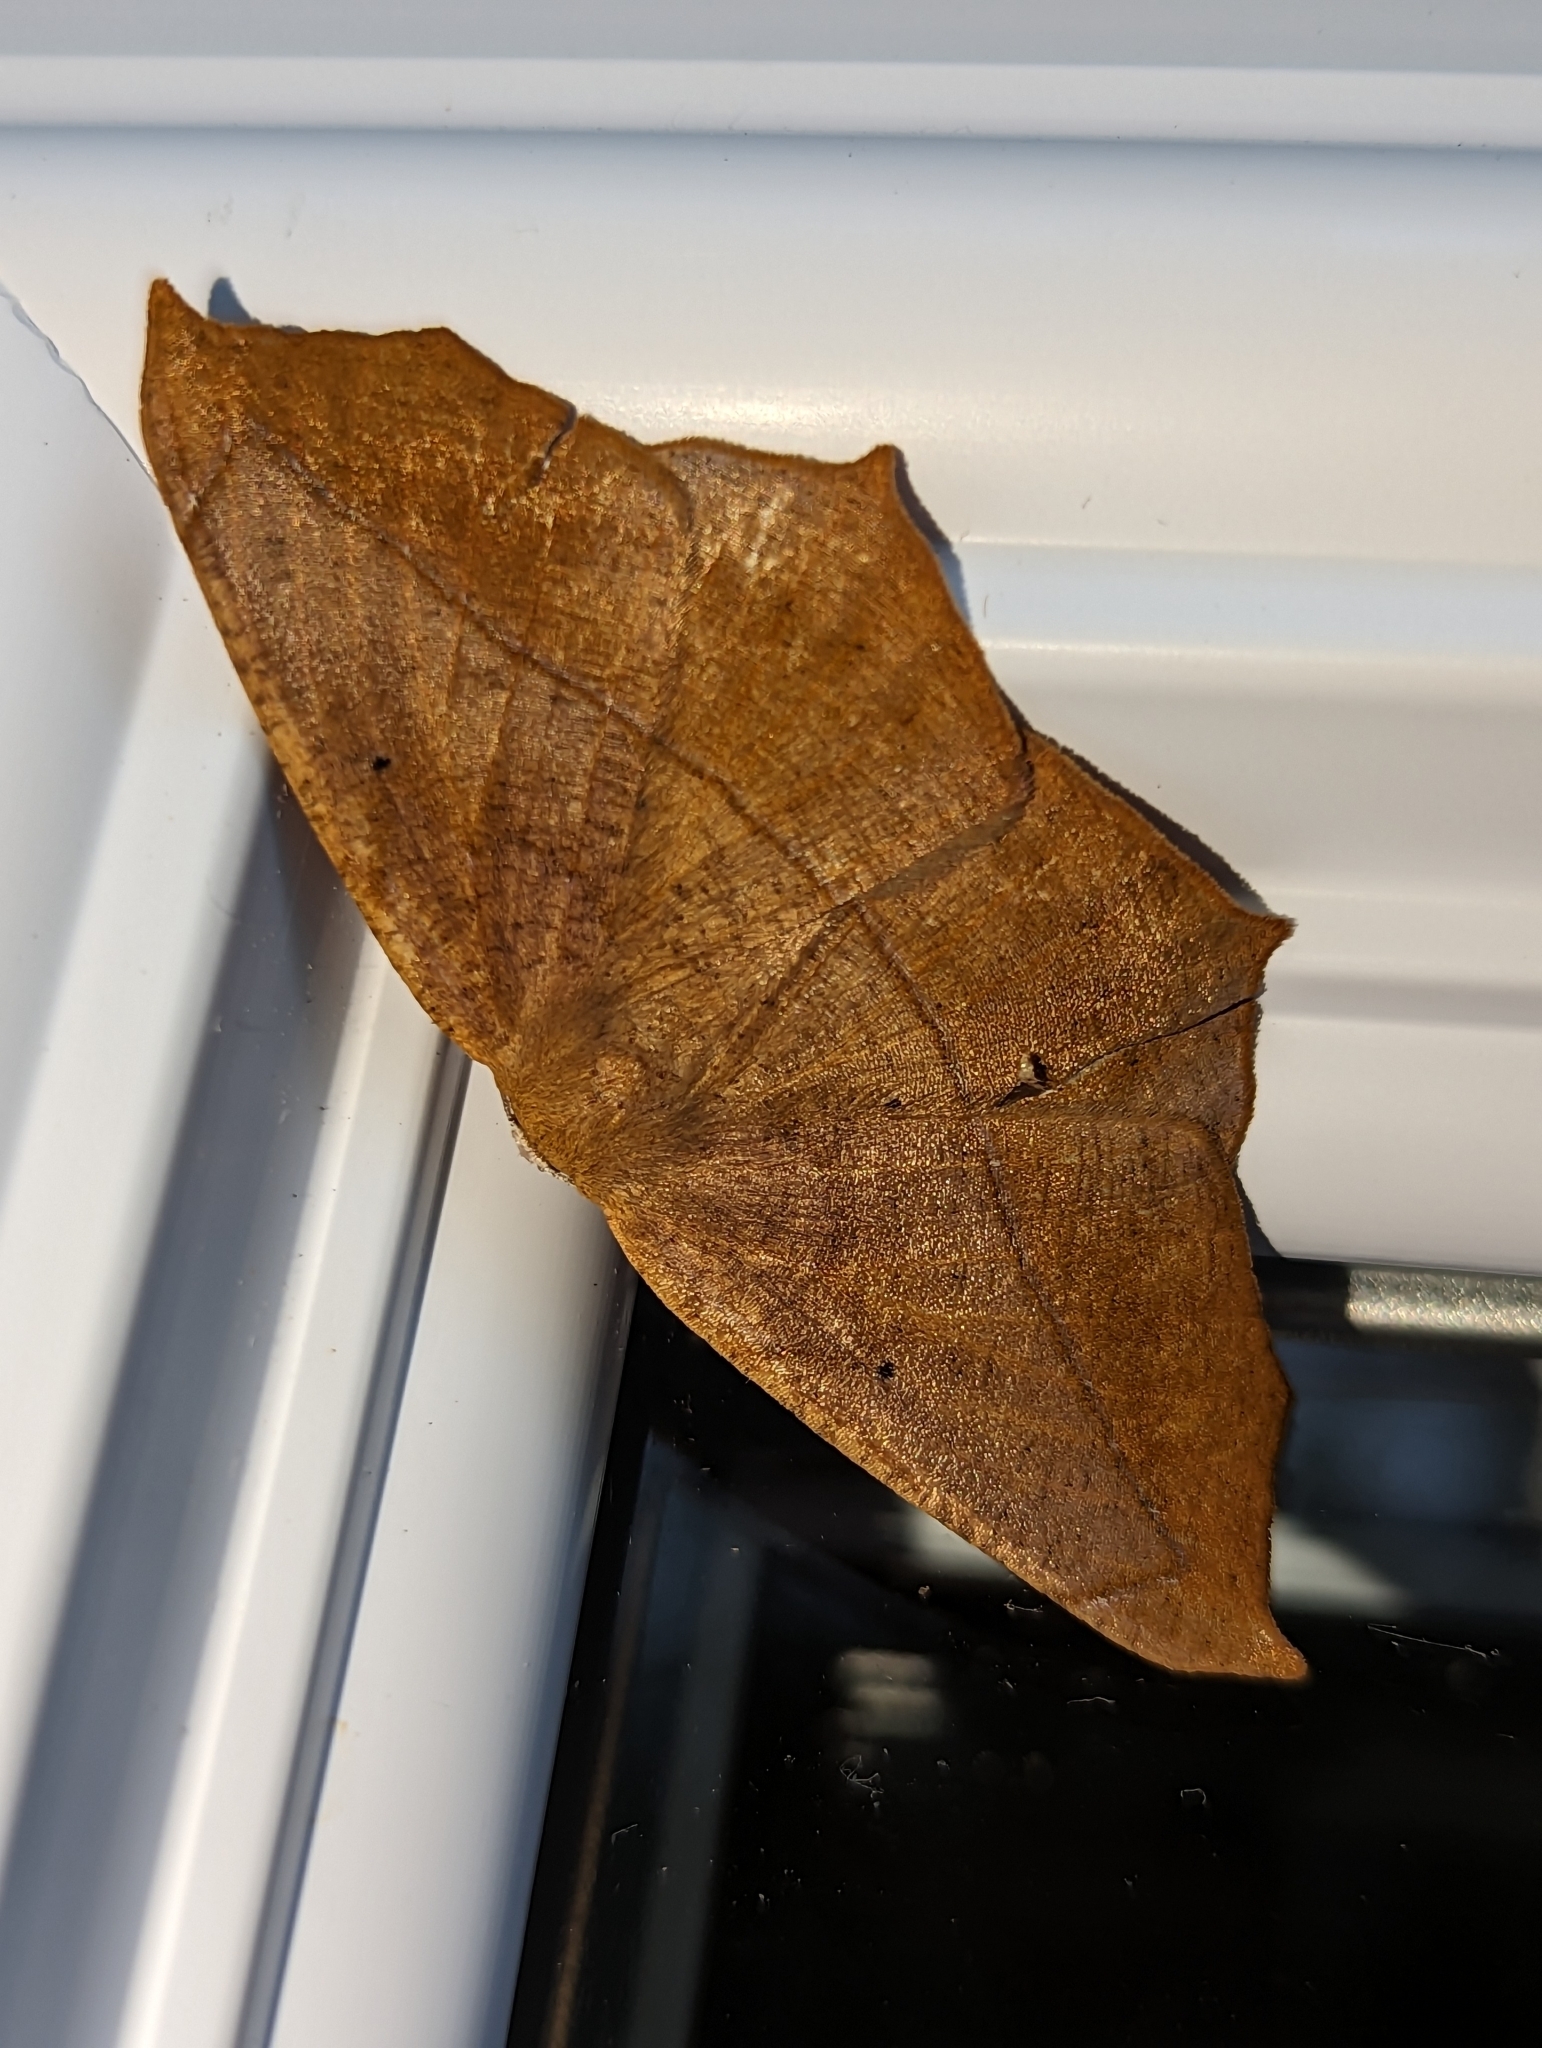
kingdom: Animalia
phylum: Arthropoda
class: Insecta
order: Lepidoptera
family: Geometridae
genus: Prochoerodes
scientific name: Prochoerodes lineola
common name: Large maple spanworm
